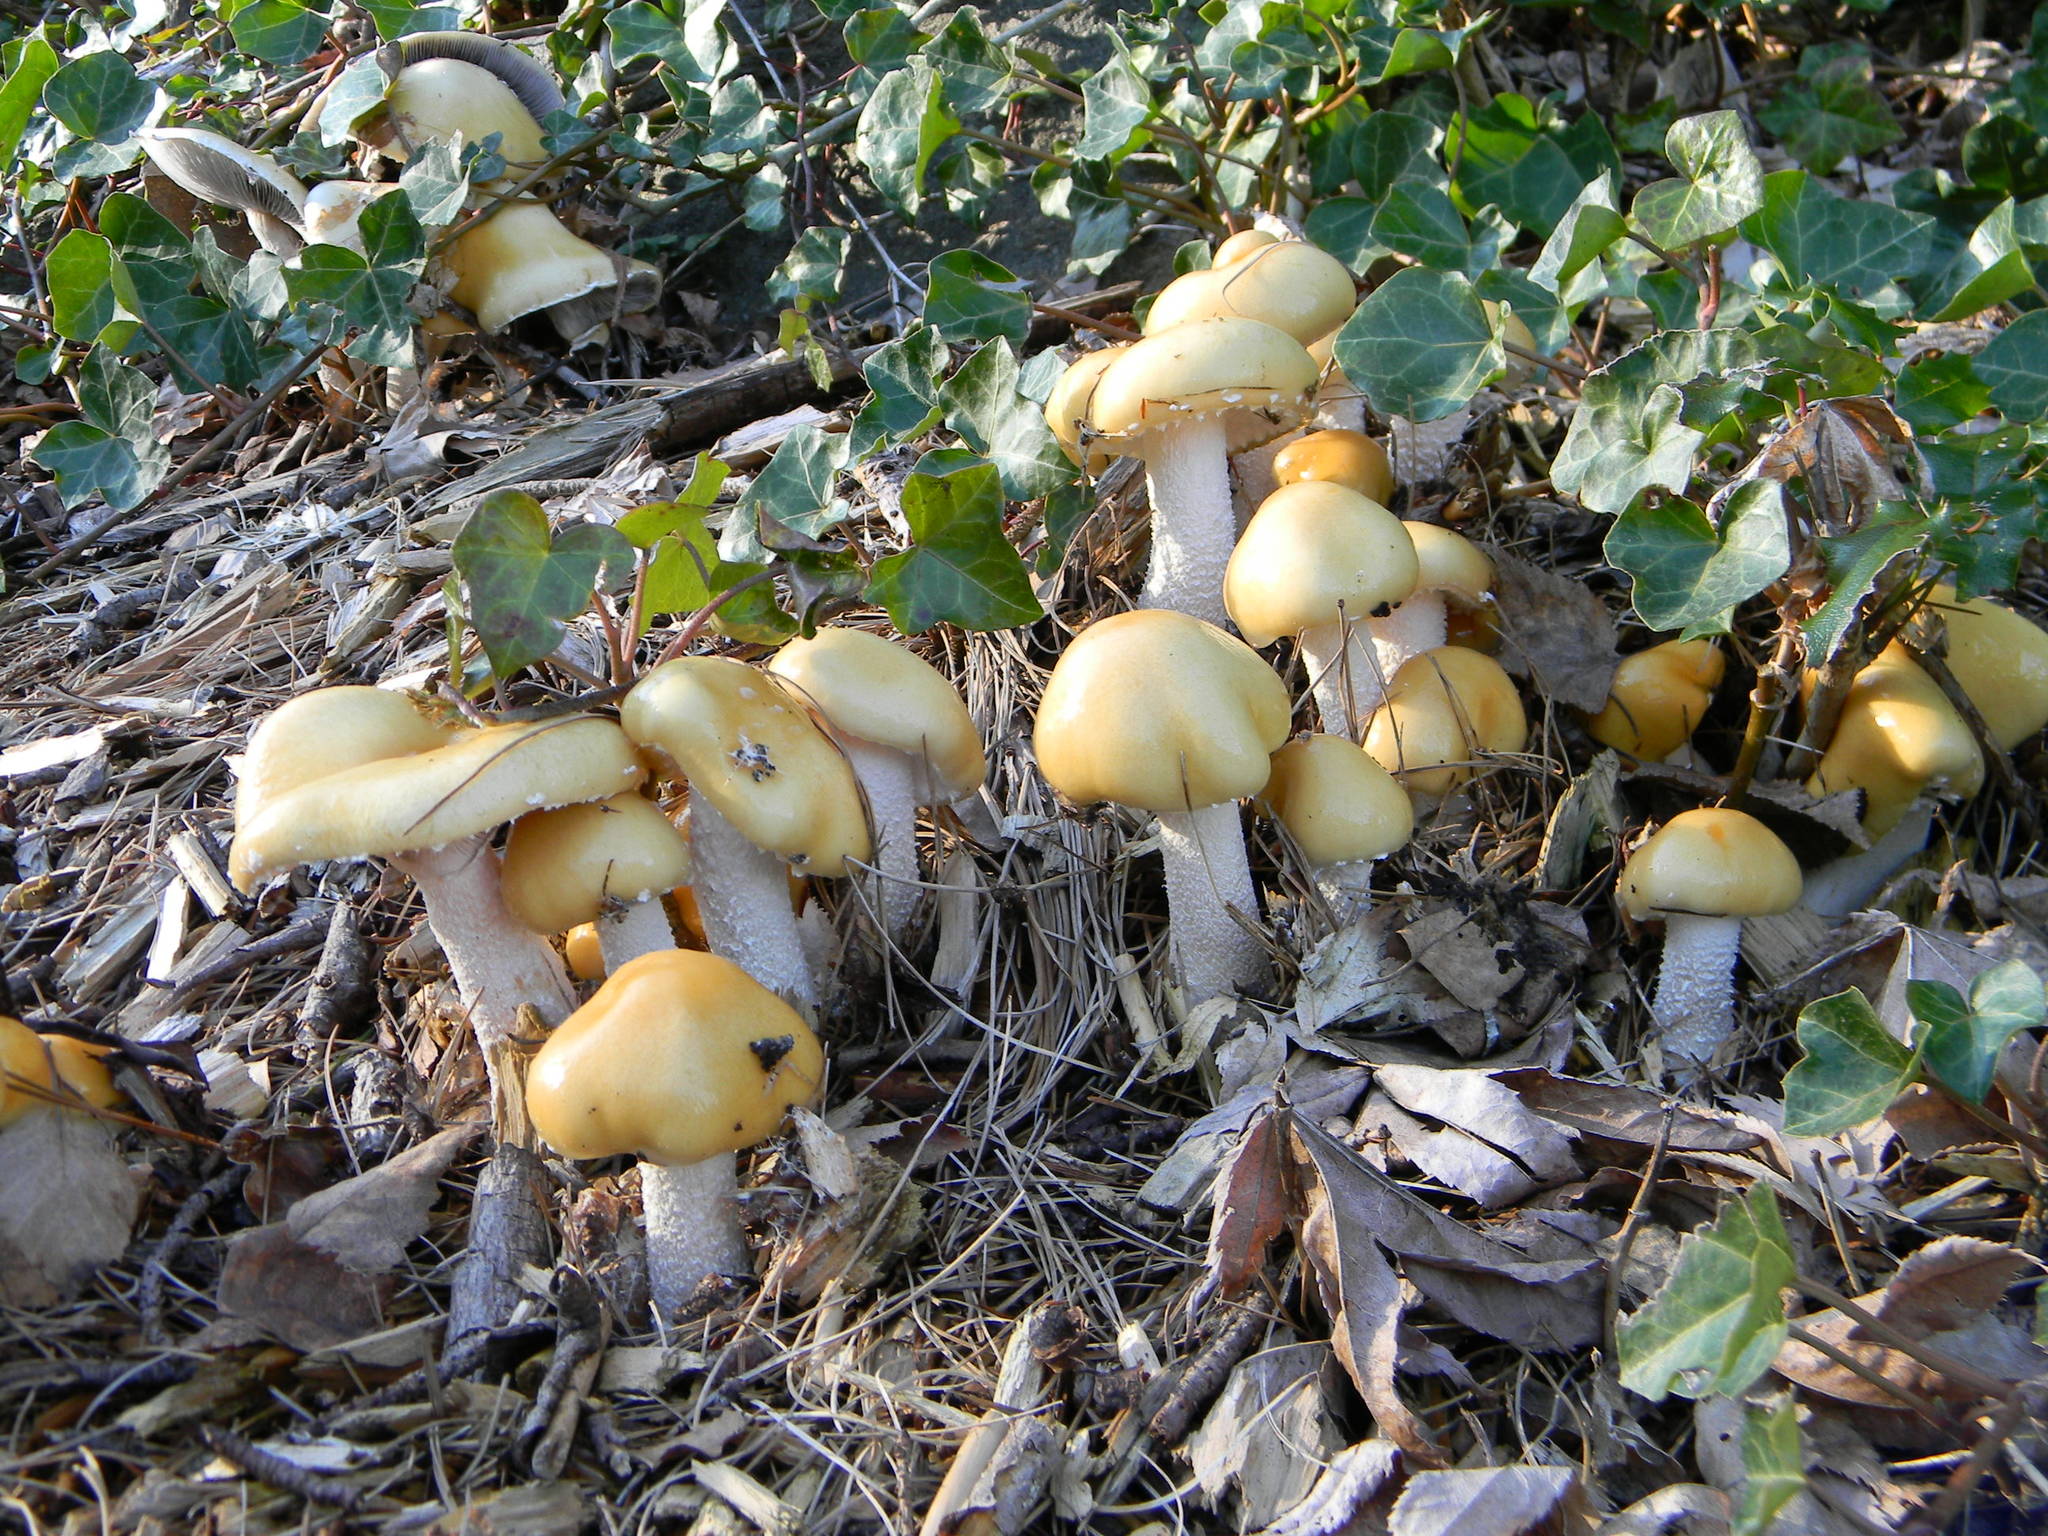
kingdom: Fungi
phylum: Basidiomycota
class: Agaricomycetes
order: Agaricales
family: Strophariaceae
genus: Stropharia
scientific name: Stropharia ambigua
